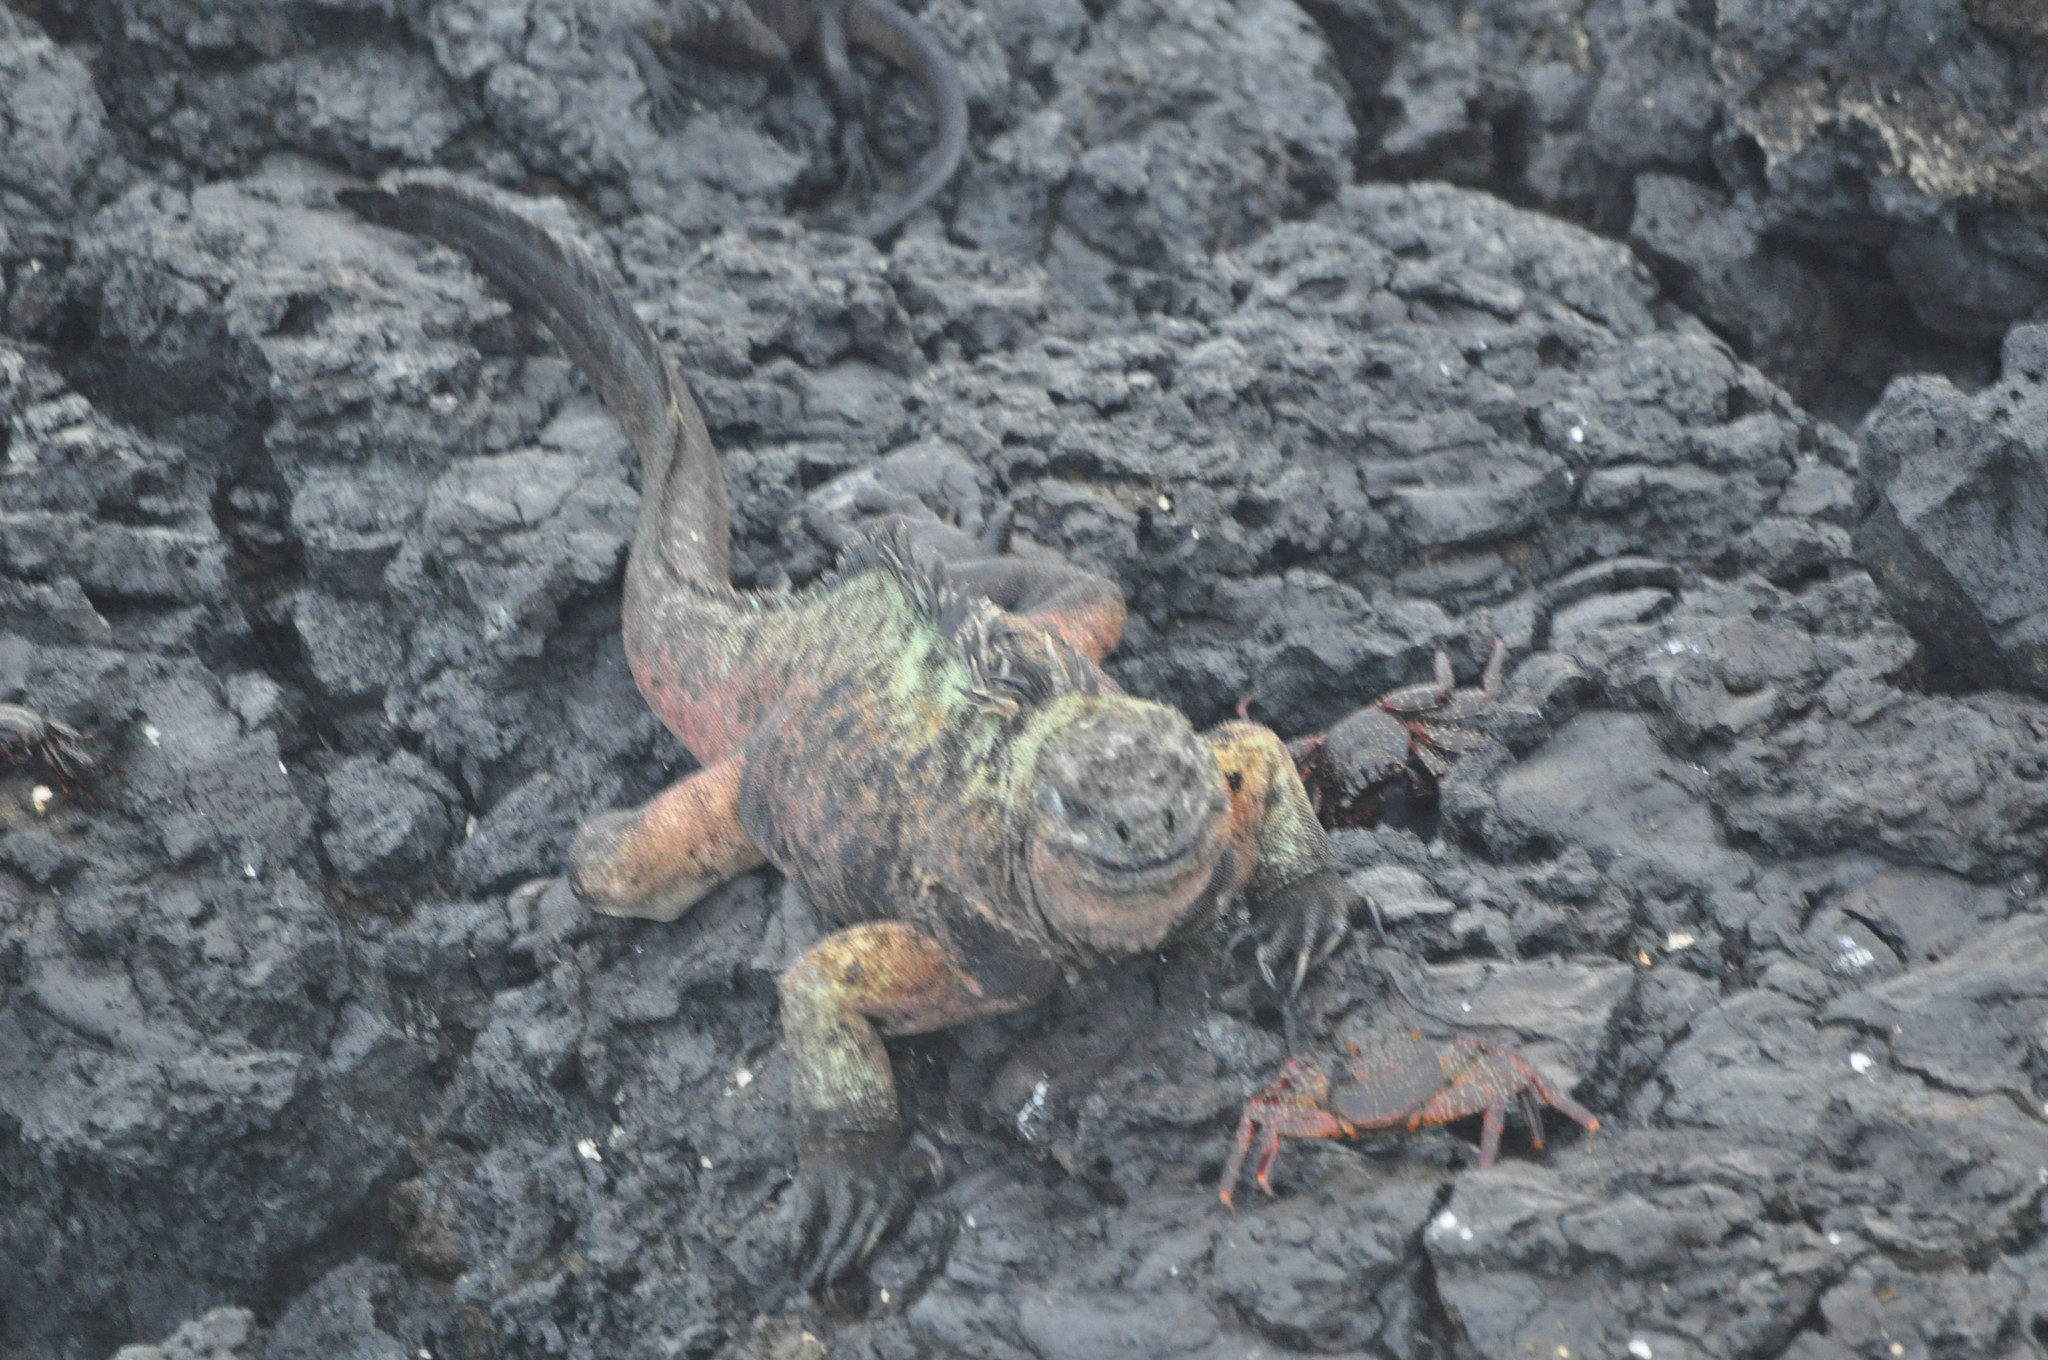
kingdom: Animalia
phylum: Chordata
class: Squamata
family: Iguanidae
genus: Amblyrhynchus
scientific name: Amblyrhynchus cristatus
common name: Marine iguana
